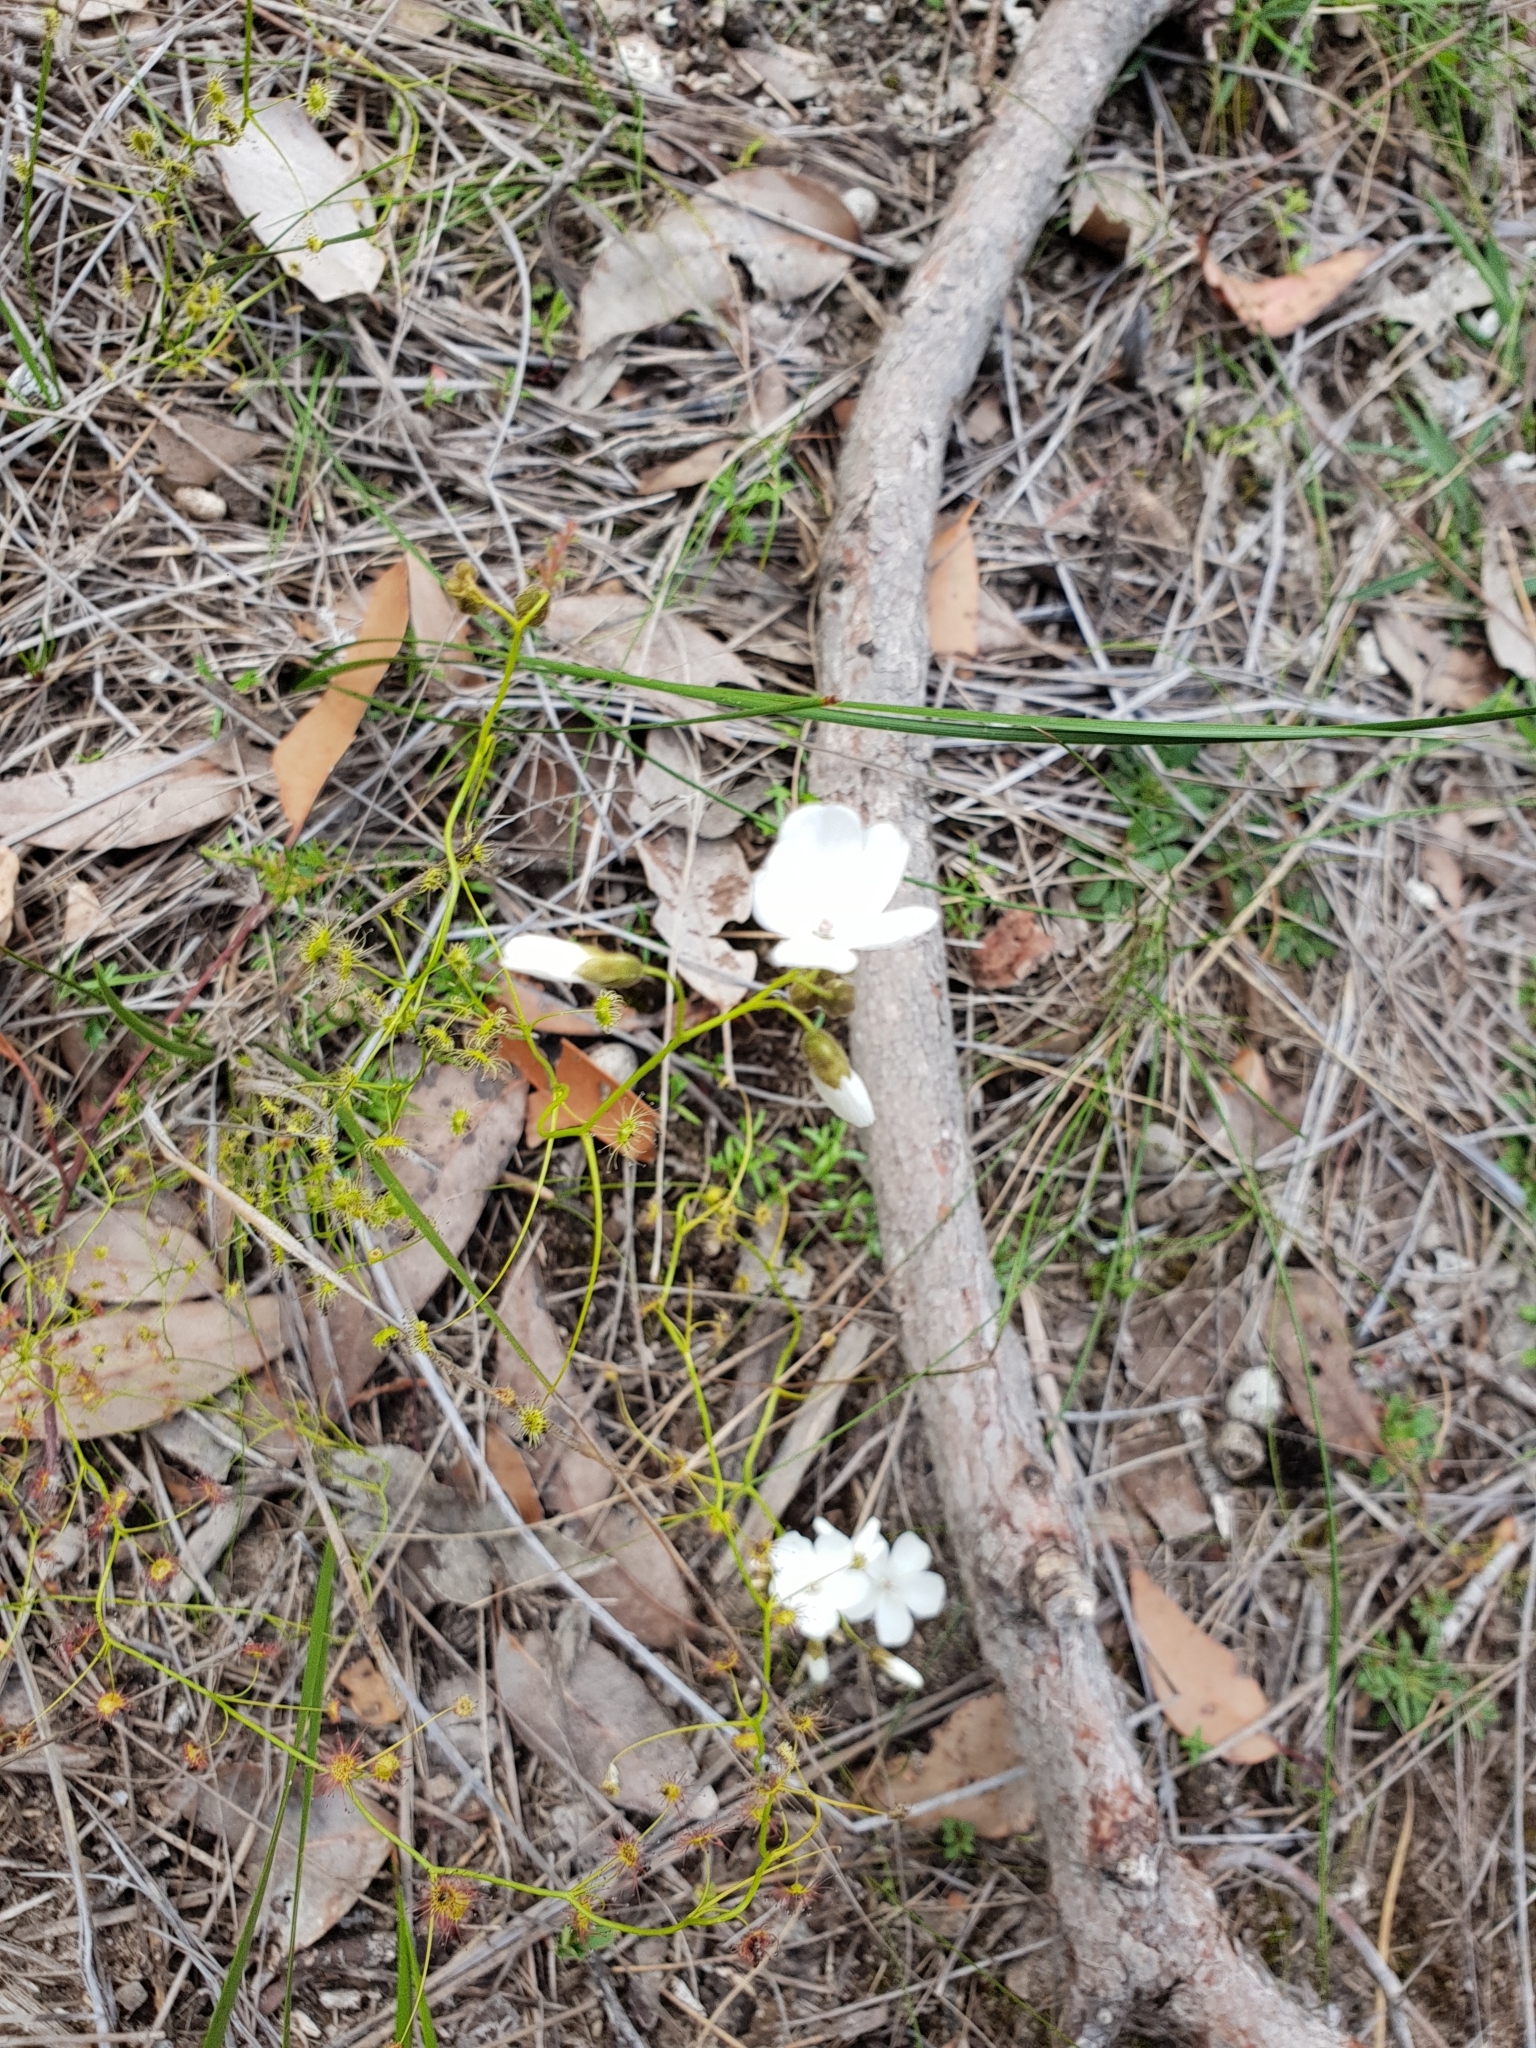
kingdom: Plantae
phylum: Tracheophyta
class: Magnoliopsida
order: Caryophyllales
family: Droseraceae
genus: Drosera
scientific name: Drosera erythrogyne
